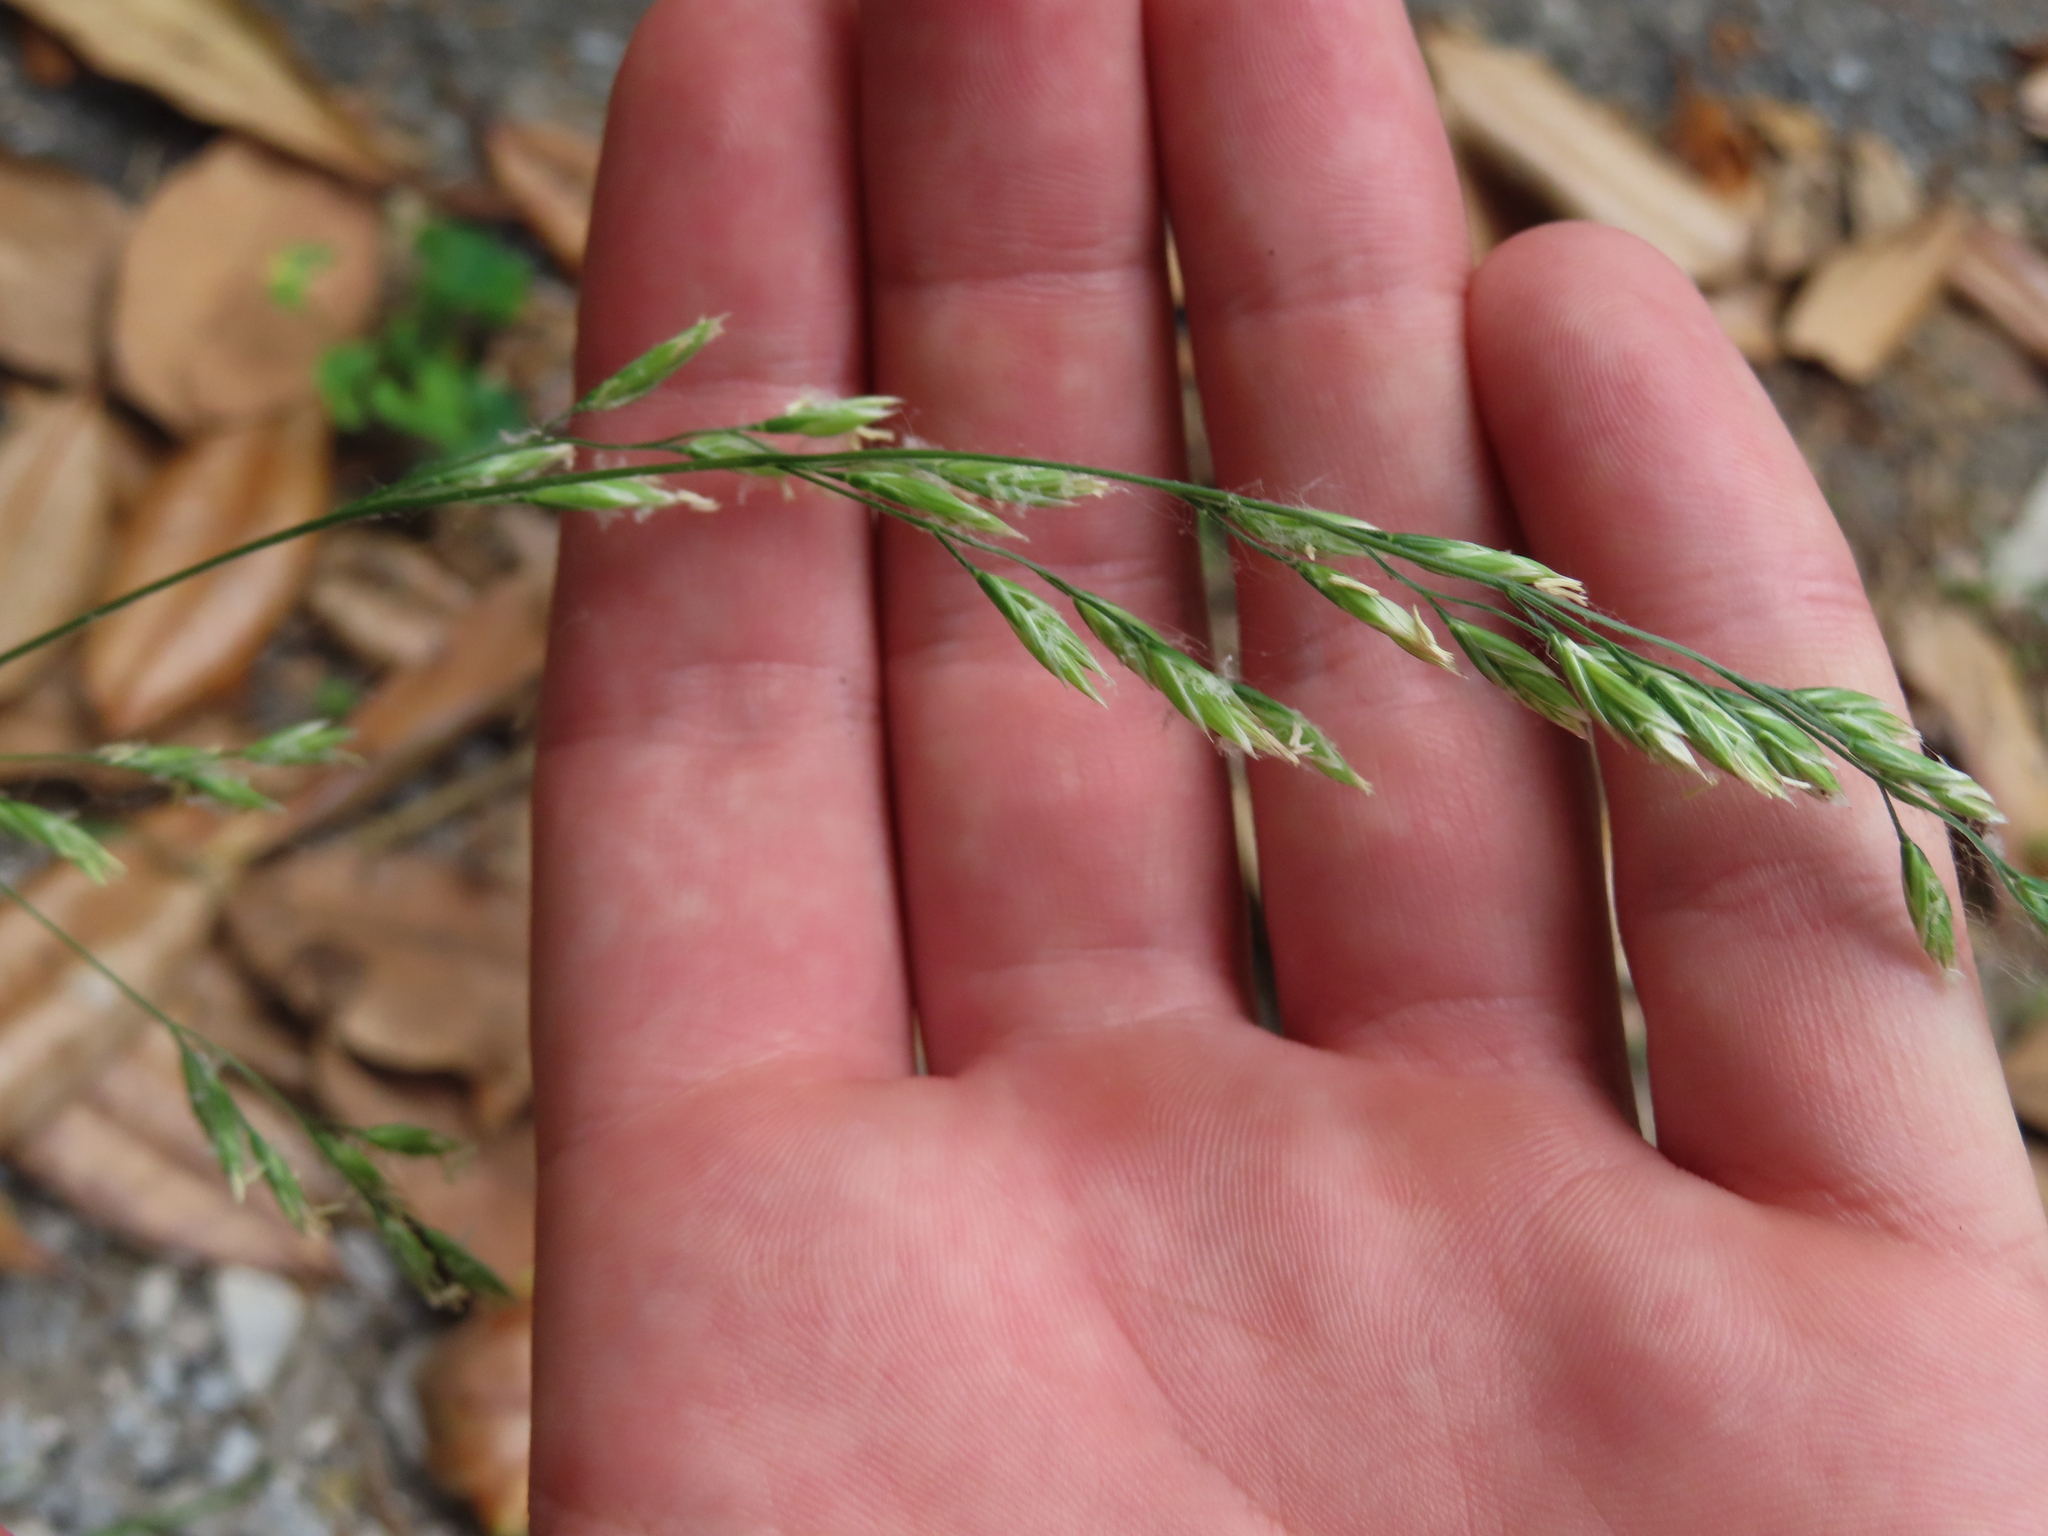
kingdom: Plantae
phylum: Tracheophyta
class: Liliopsida
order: Poales
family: Poaceae
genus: Lolium
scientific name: Lolium arundinaceum
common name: Reed fescue
